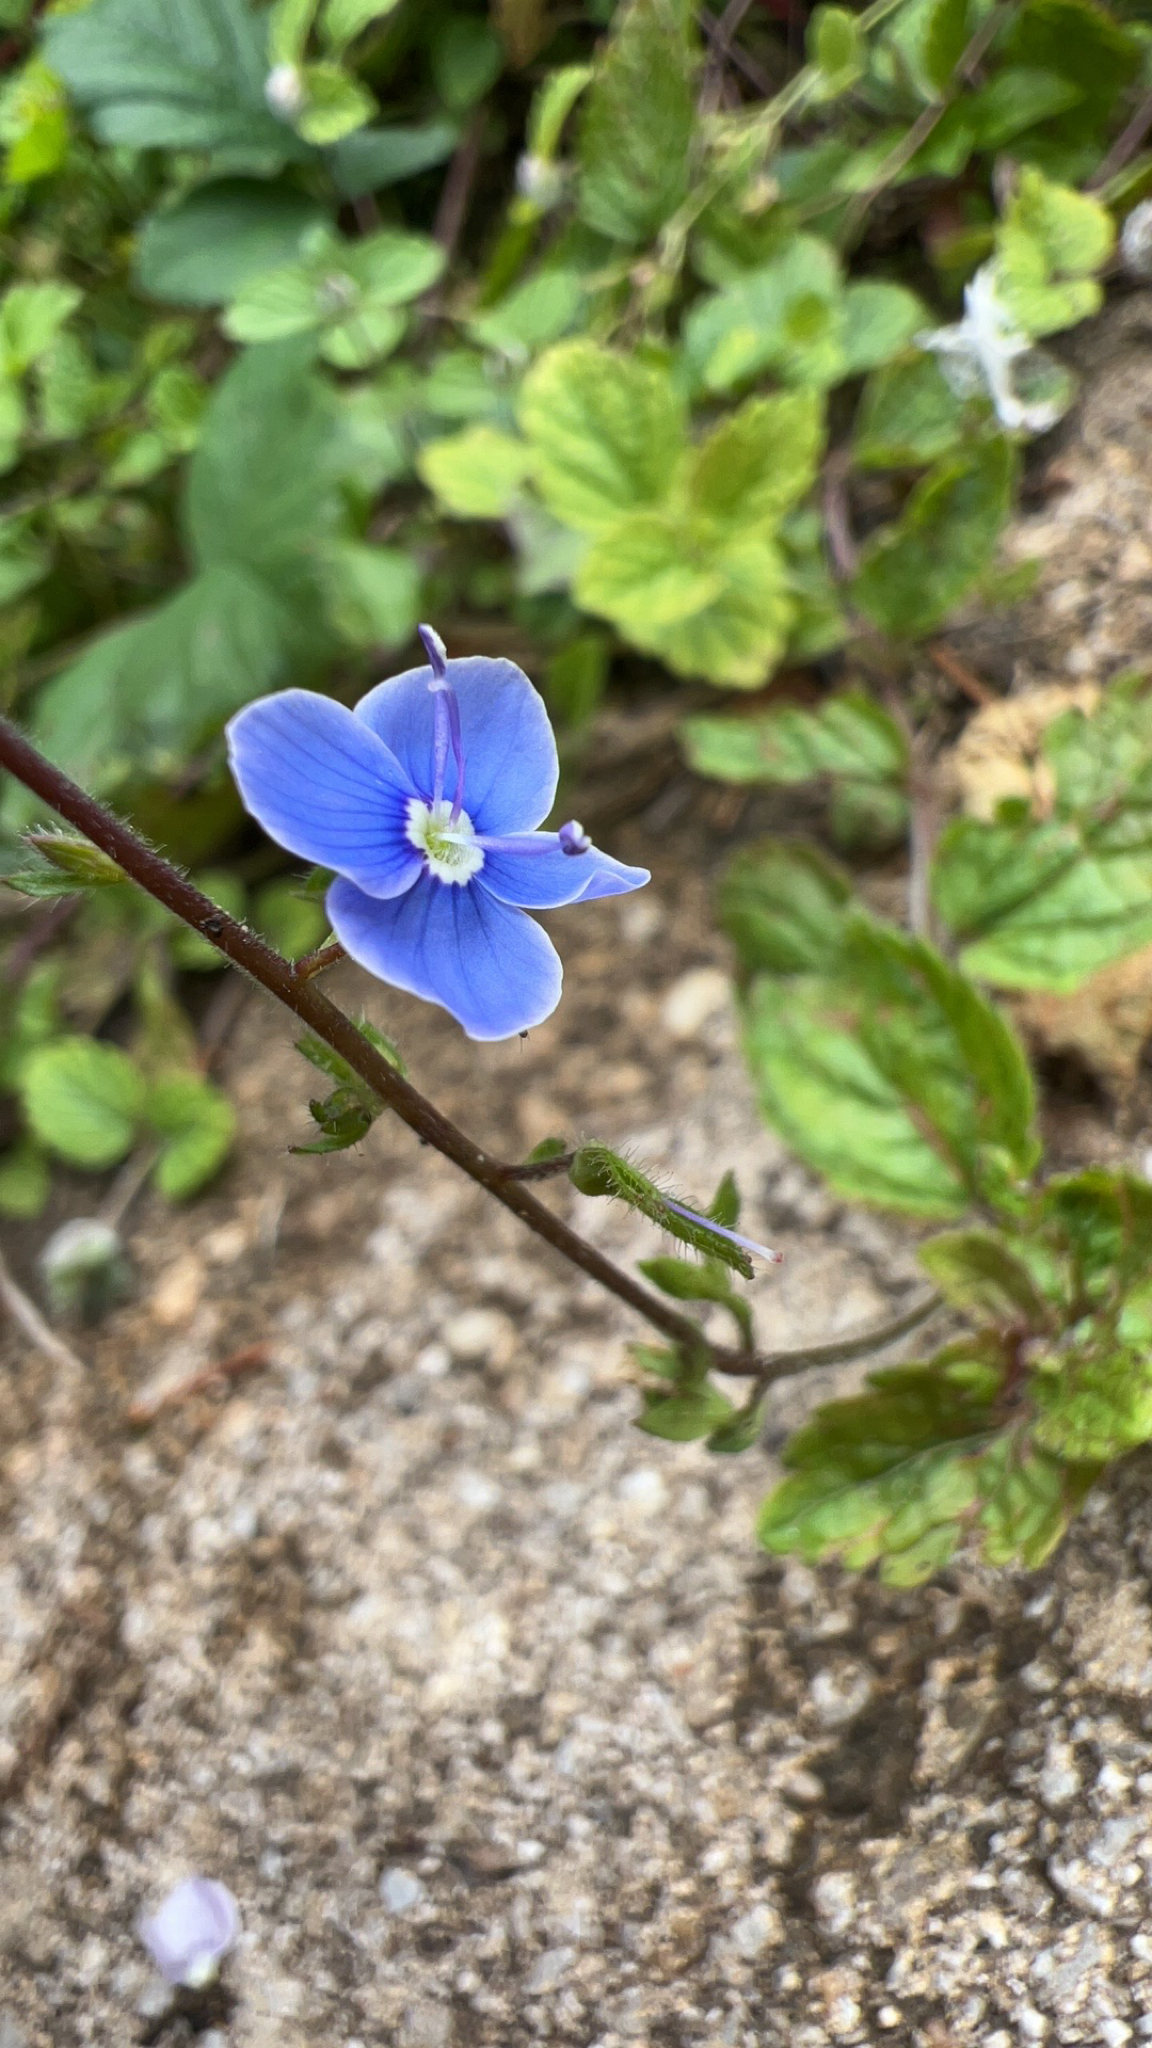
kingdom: Plantae
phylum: Tracheophyta
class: Magnoliopsida
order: Lamiales
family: Plantaginaceae
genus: Veronica
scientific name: Veronica chamaedrys
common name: Germander speedwell
